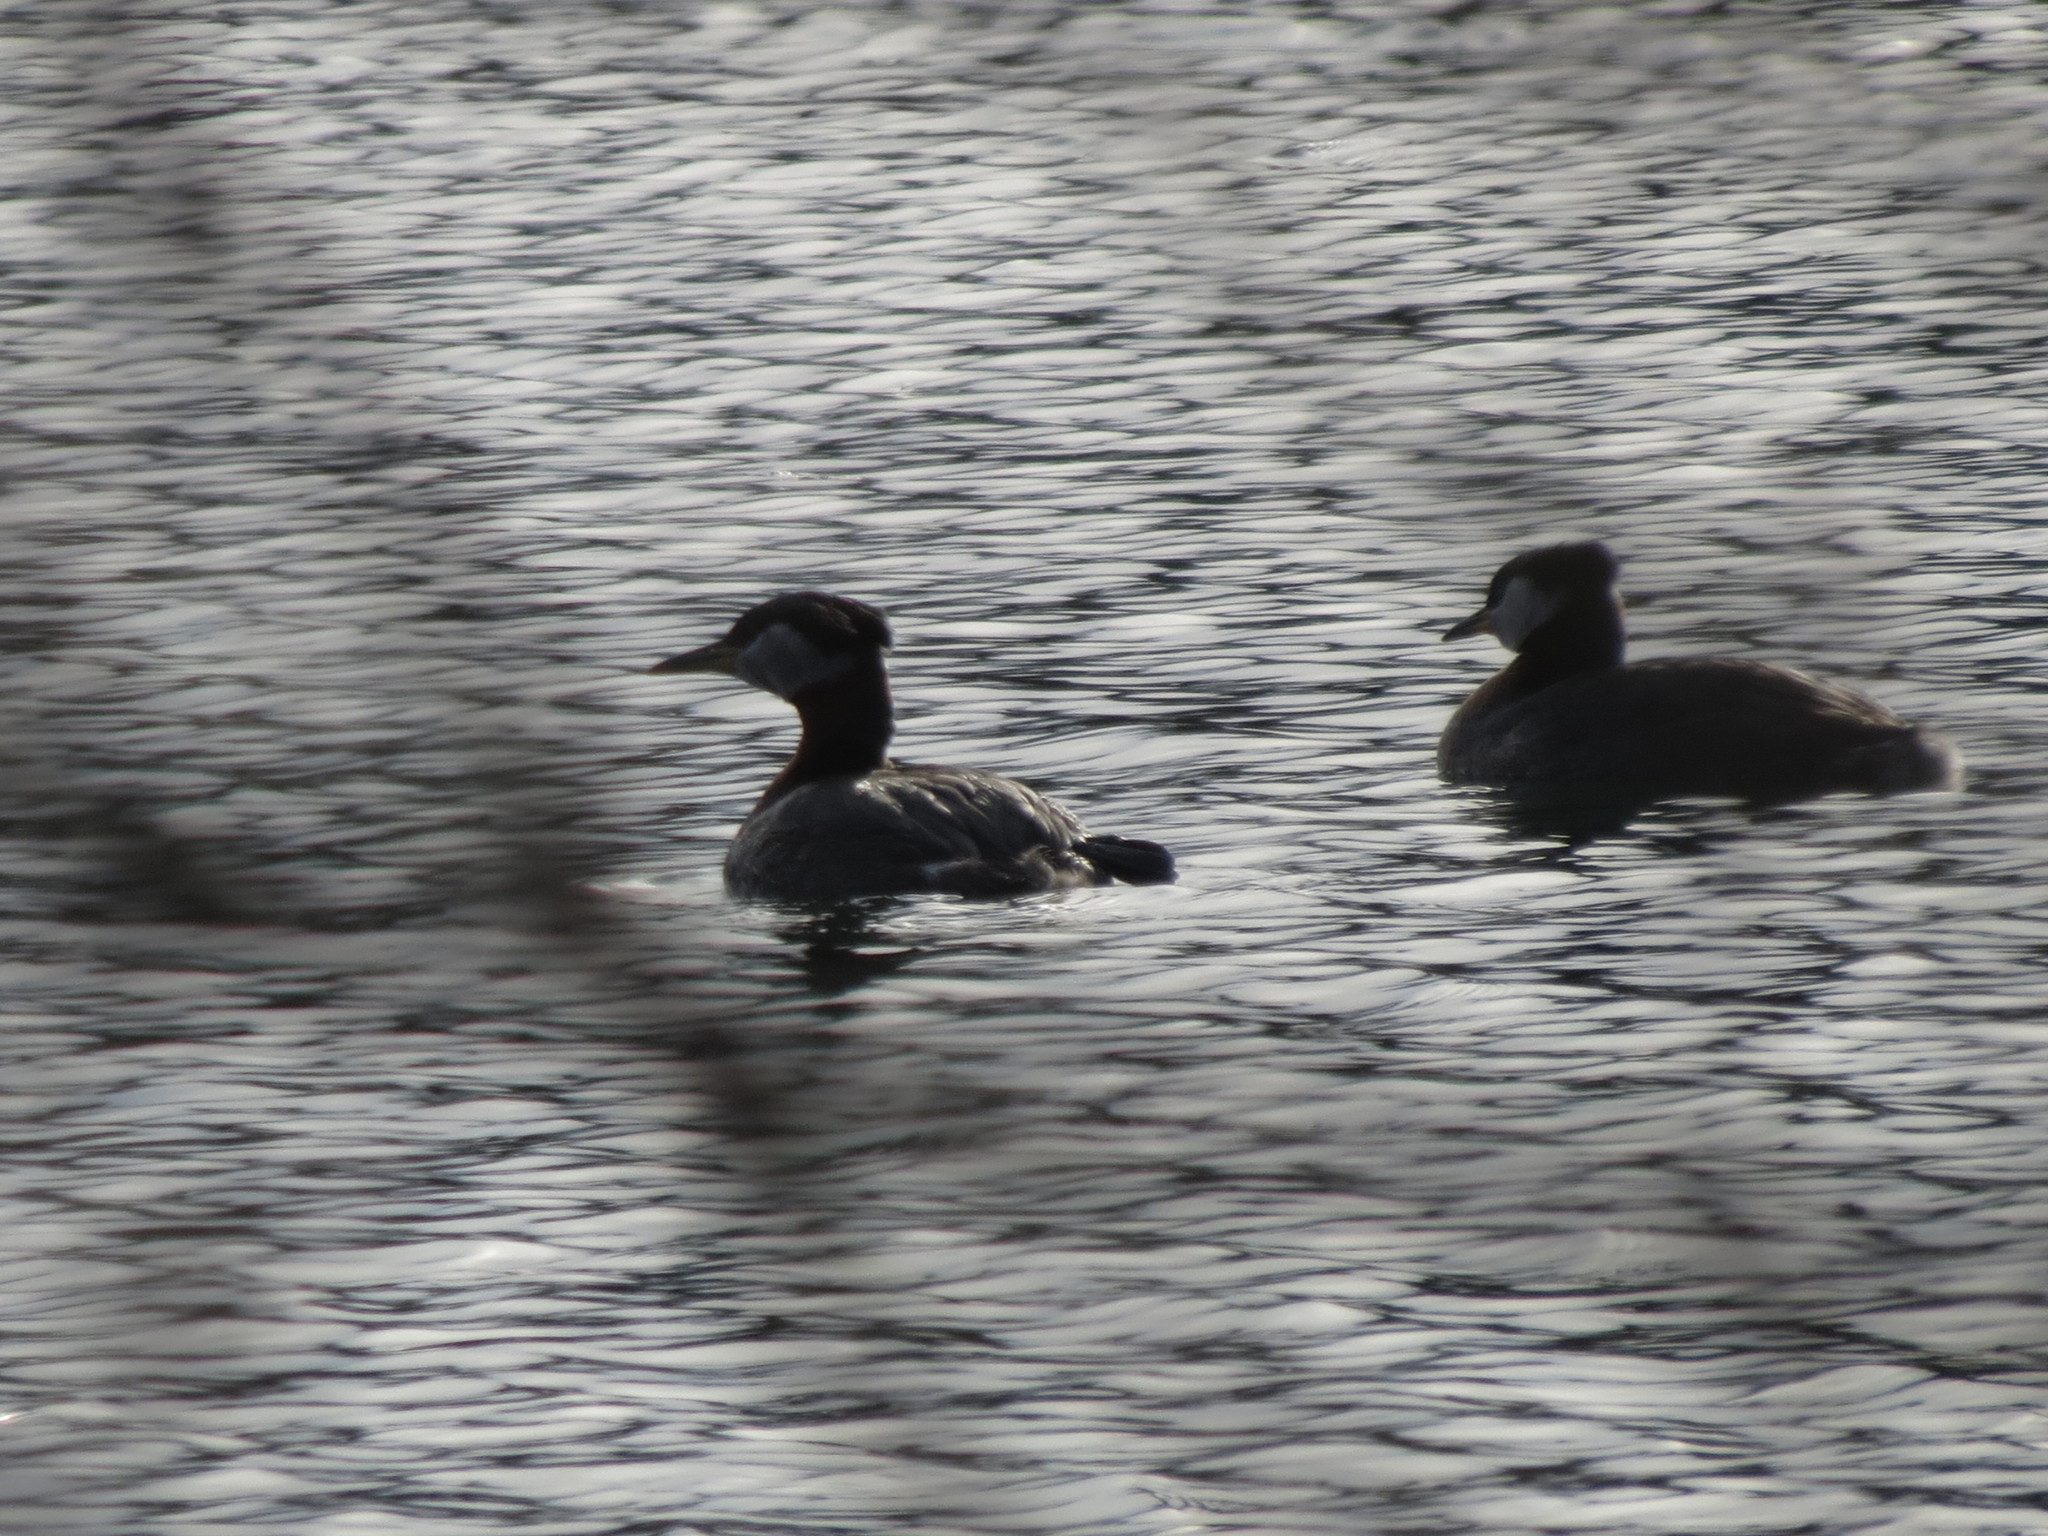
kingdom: Animalia
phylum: Chordata
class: Aves
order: Podicipediformes
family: Podicipedidae
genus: Podiceps
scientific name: Podiceps grisegena
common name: Red-necked grebe
